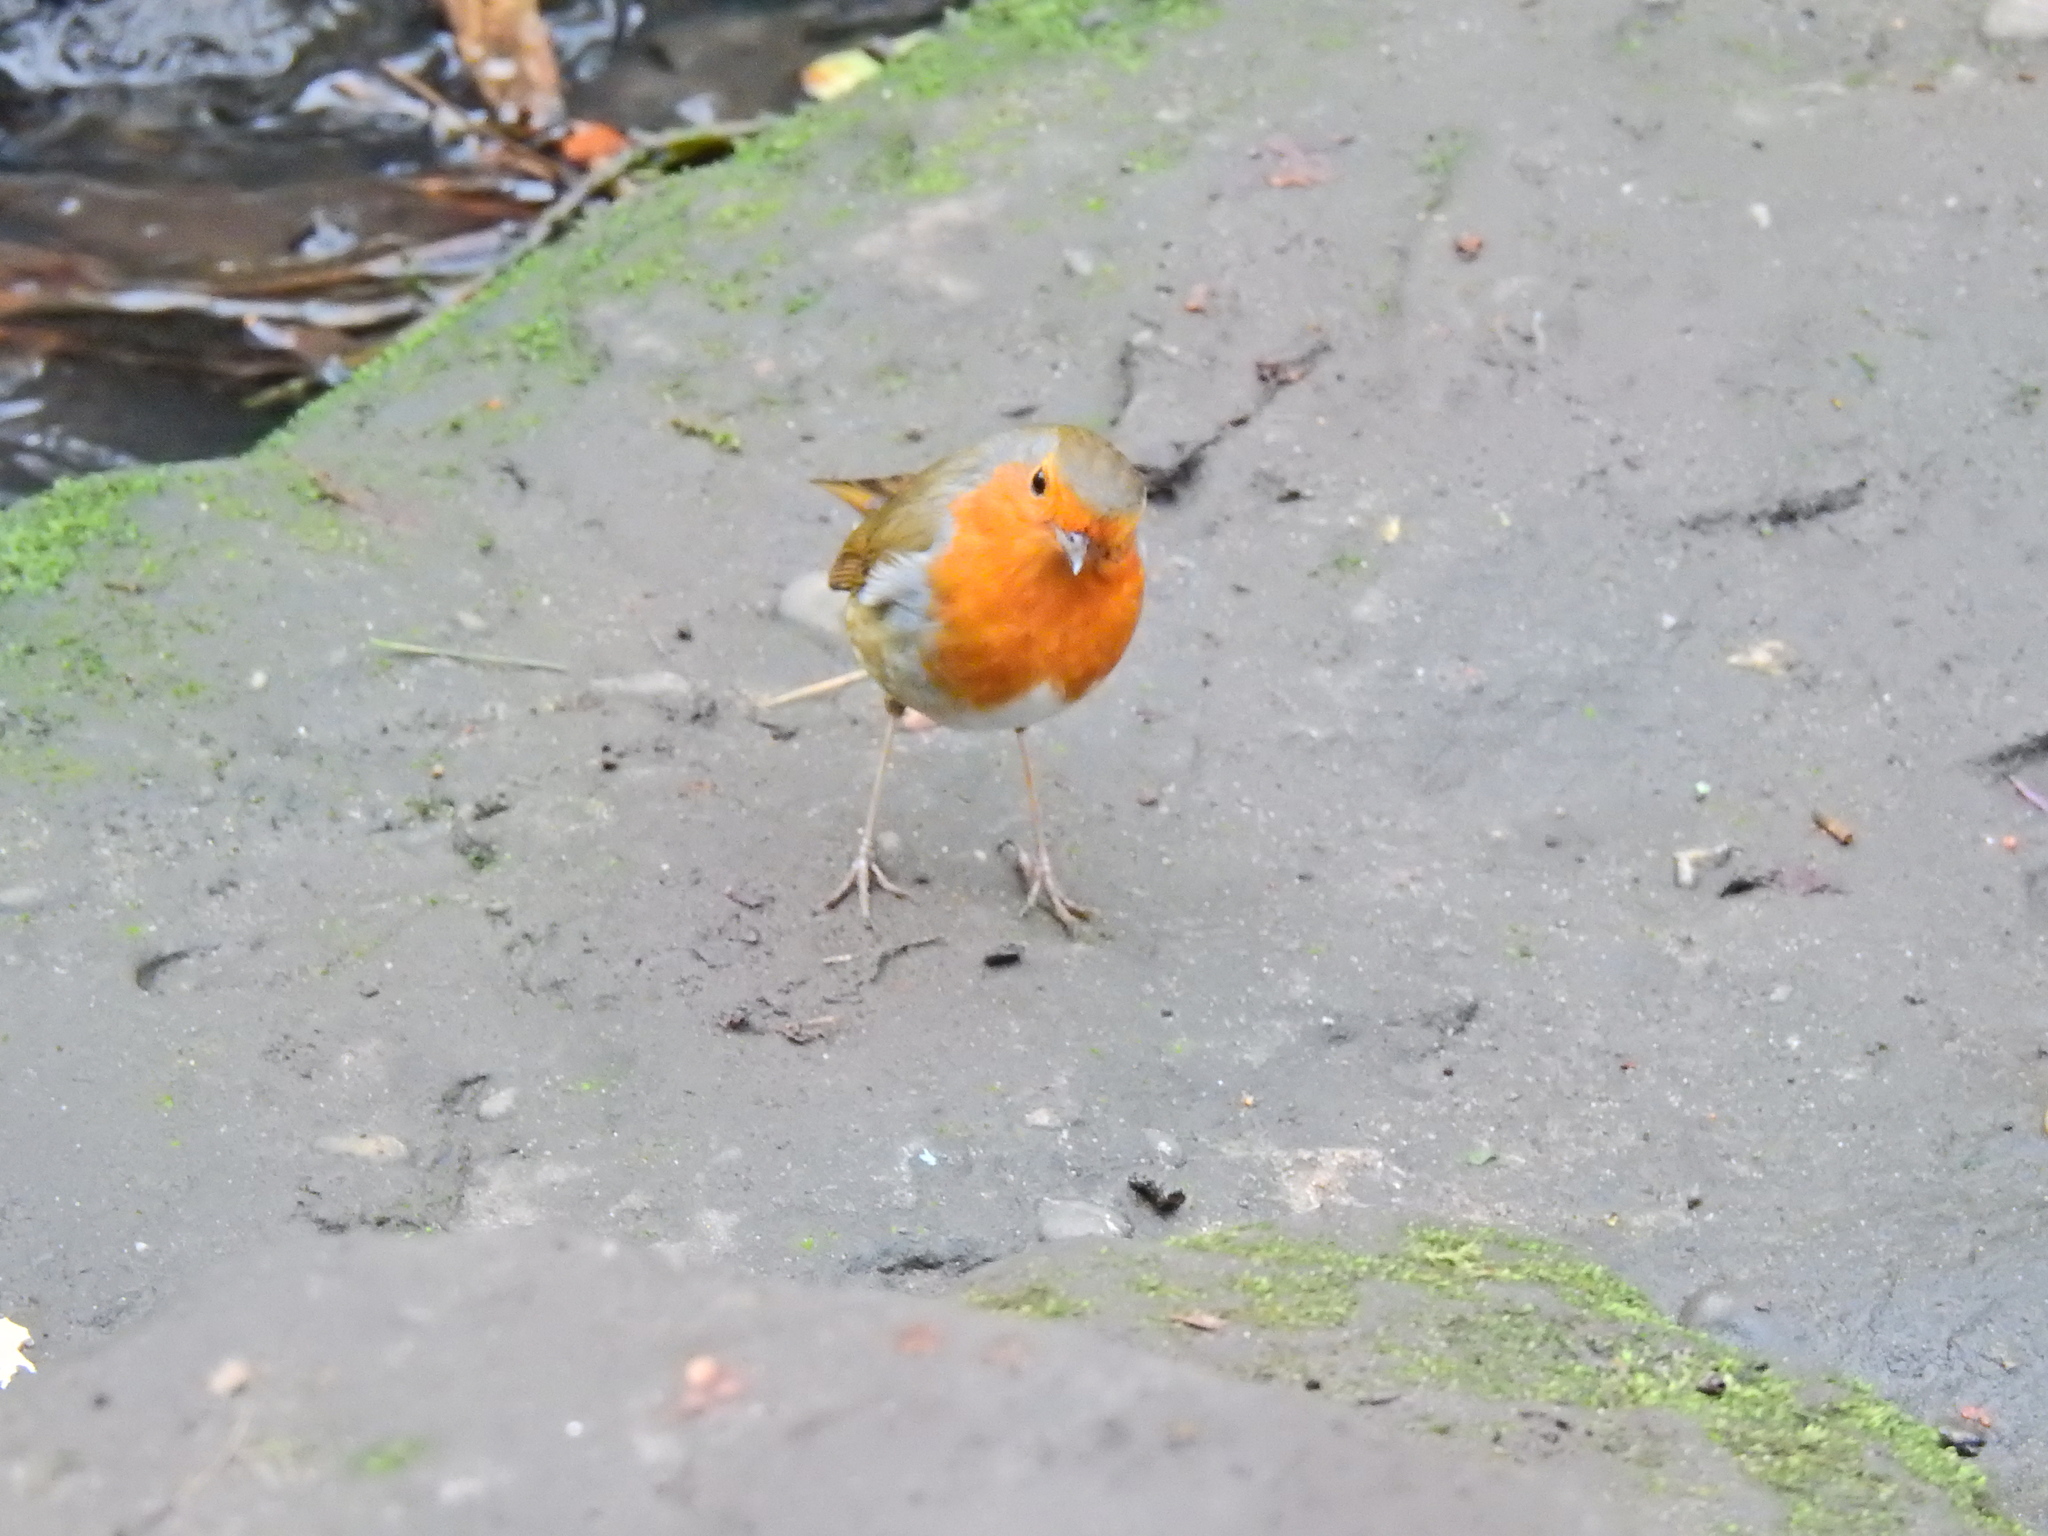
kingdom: Animalia
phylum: Chordata
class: Aves
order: Passeriformes
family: Muscicapidae
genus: Erithacus
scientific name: Erithacus rubecula
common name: European robin
